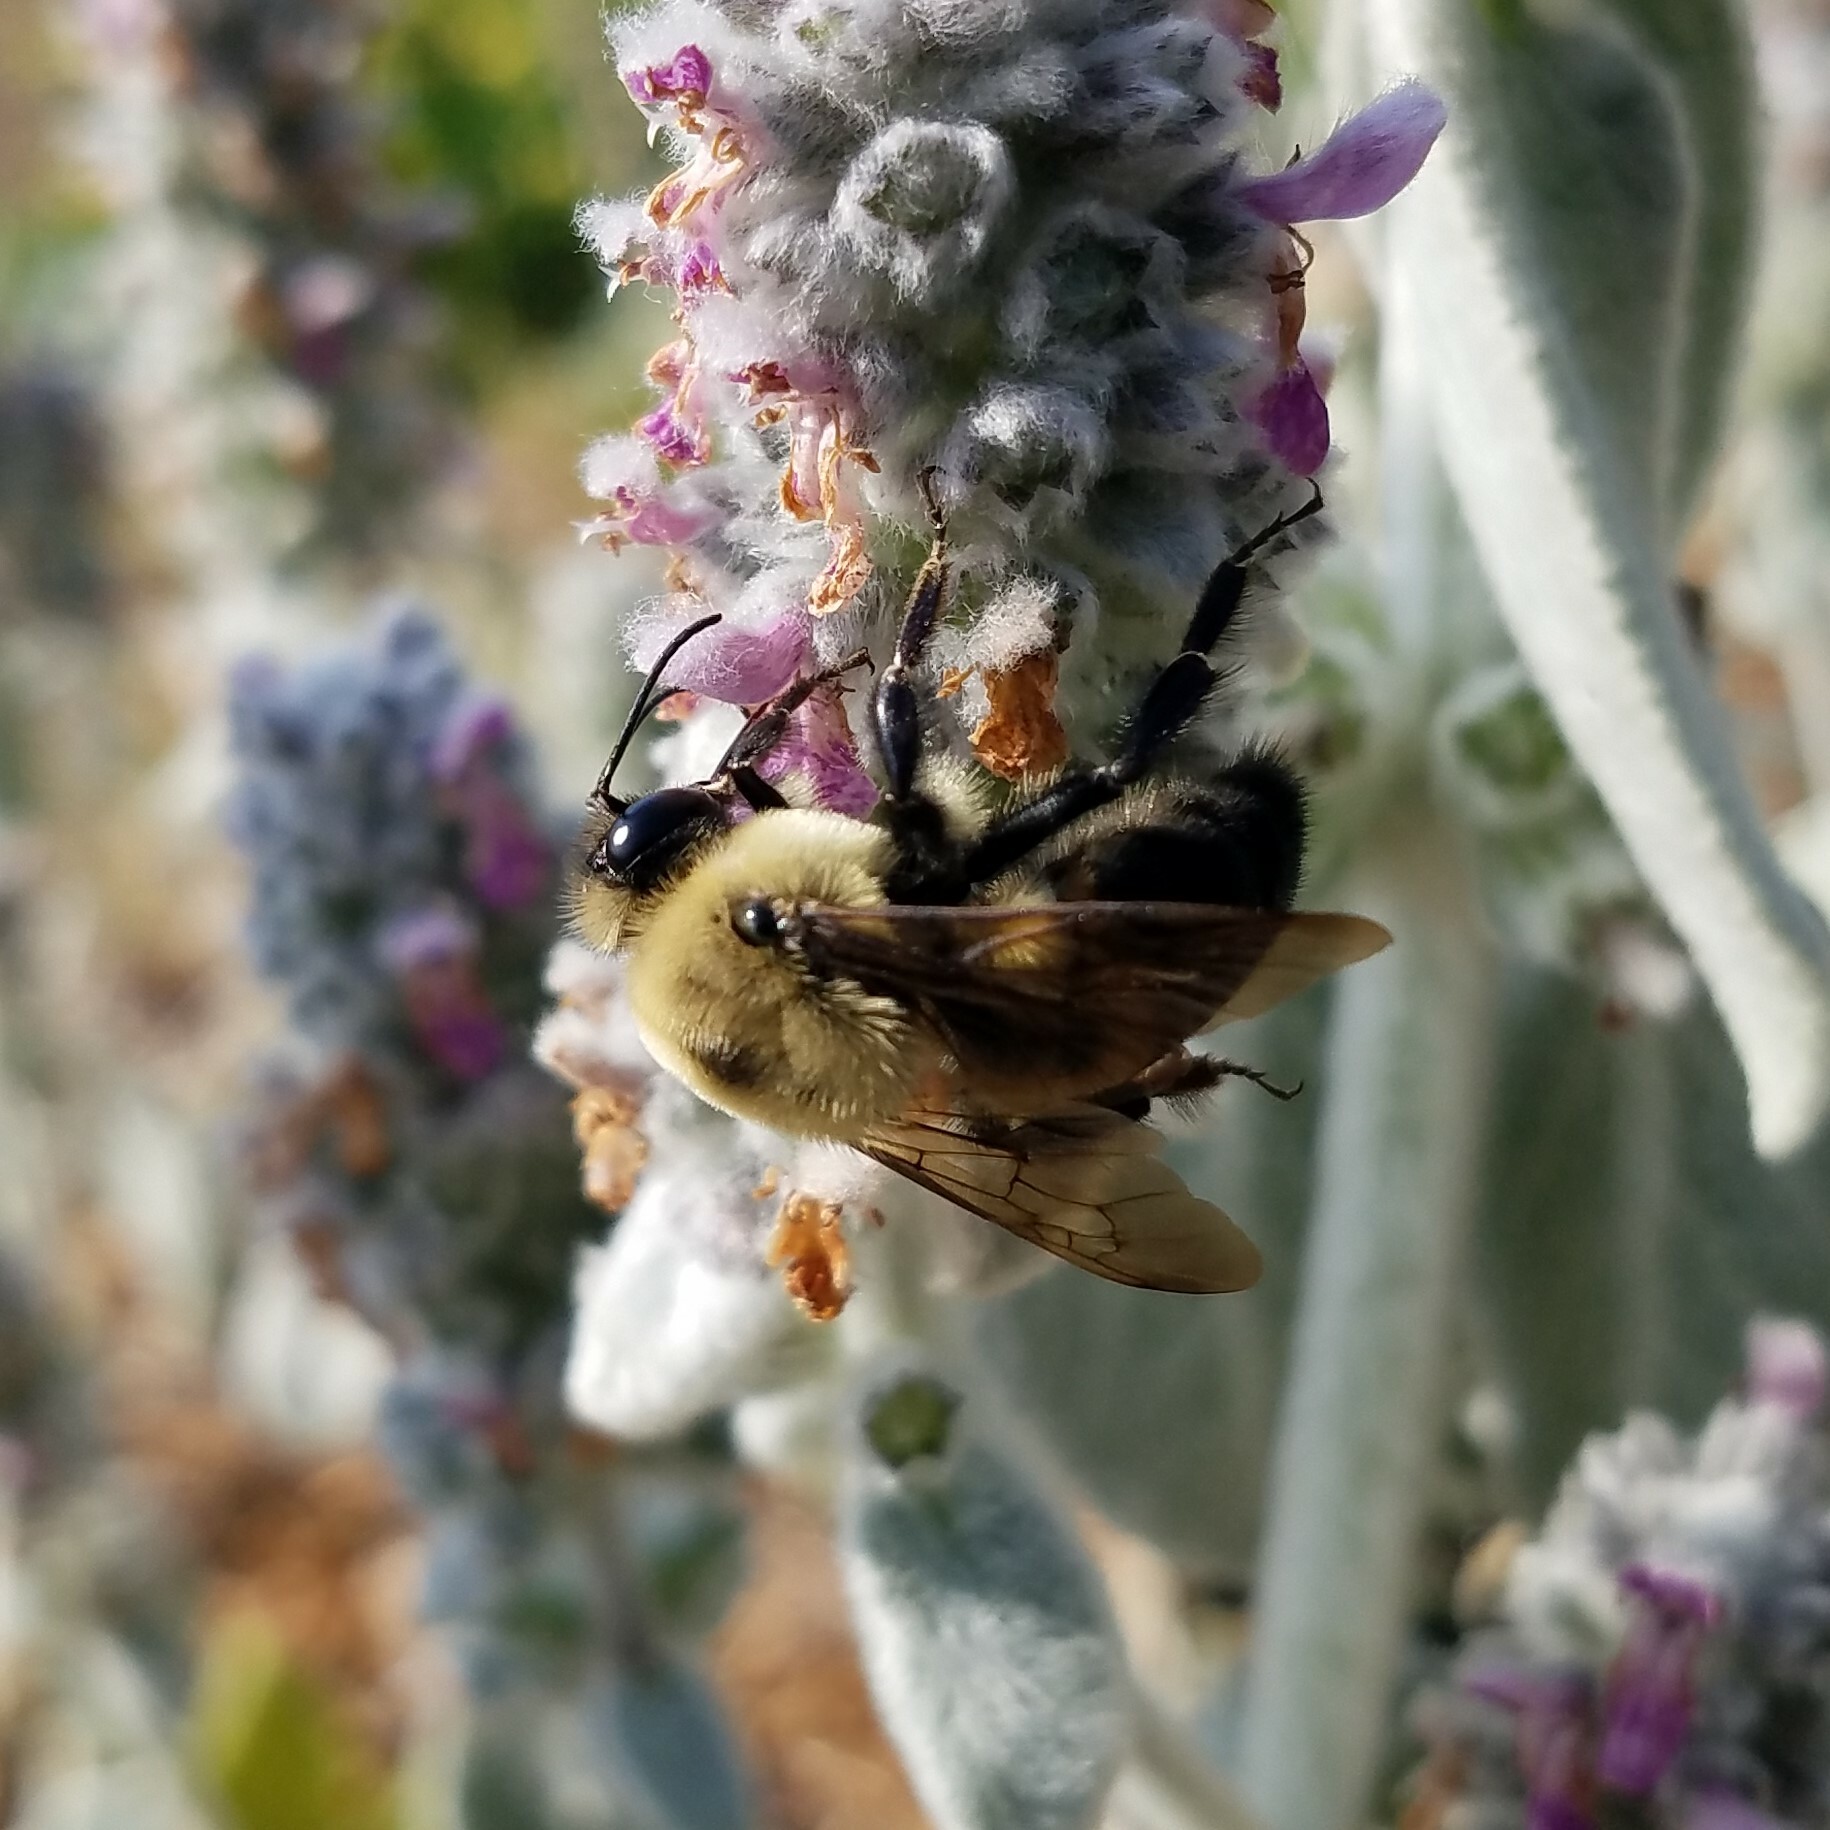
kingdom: Animalia
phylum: Arthropoda
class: Insecta
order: Hymenoptera
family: Apidae
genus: Bombus
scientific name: Bombus griseocollis
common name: Brown-belted bumble bee
